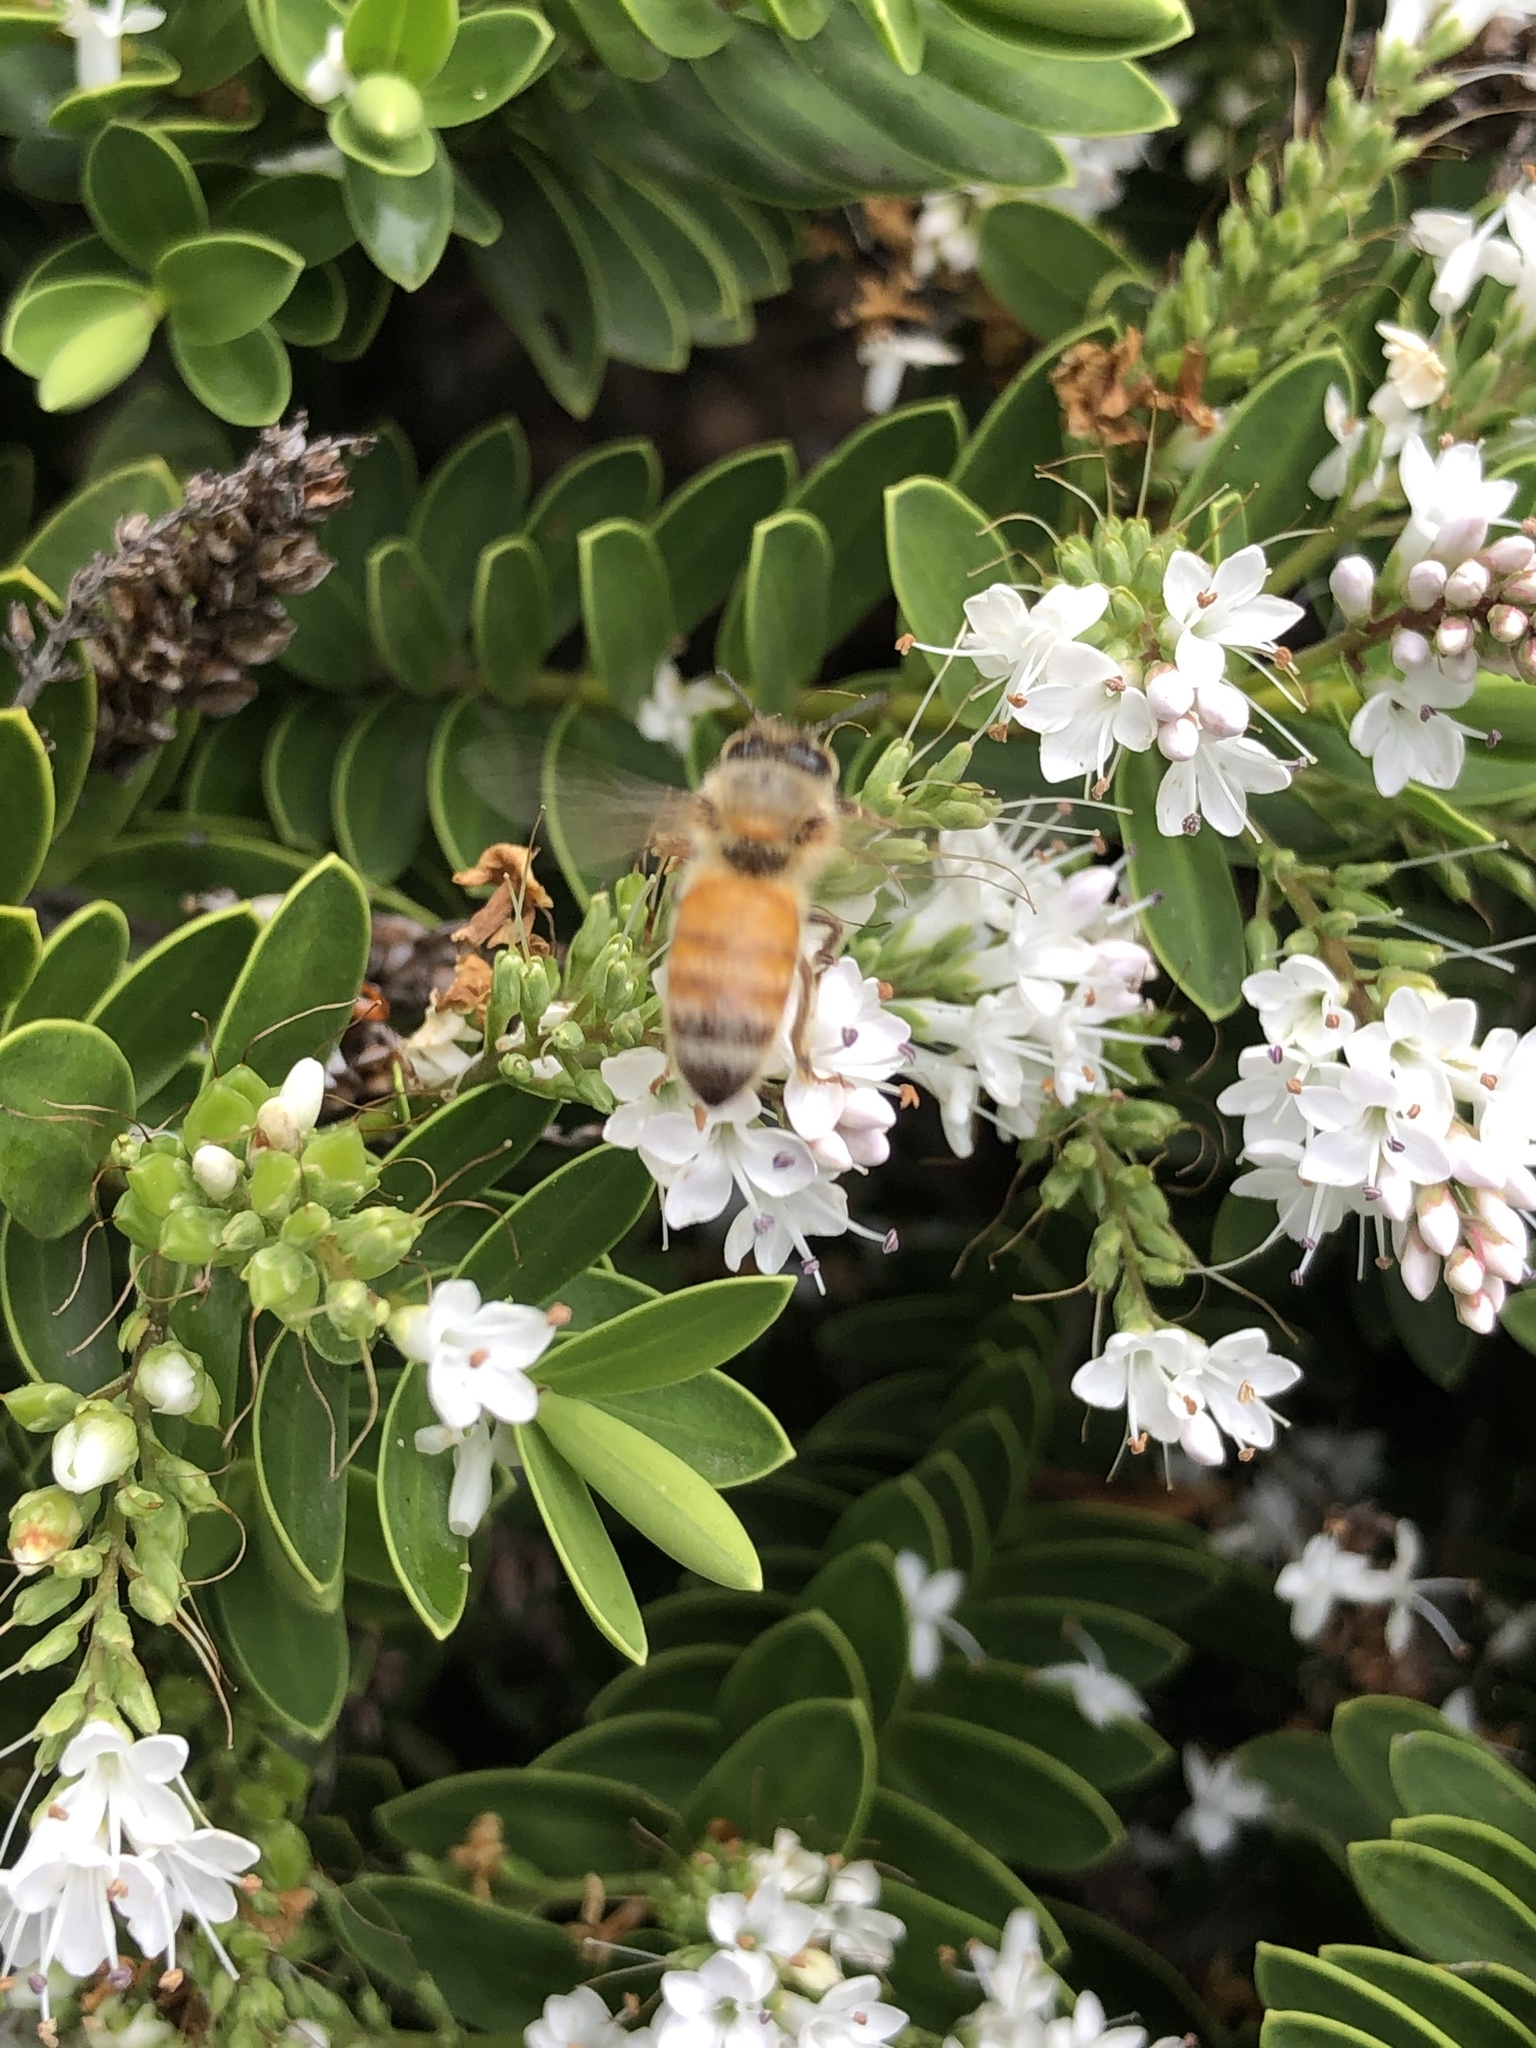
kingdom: Animalia
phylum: Arthropoda
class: Insecta
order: Hymenoptera
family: Apidae
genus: Apis
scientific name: Apis mellifera
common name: Honey bee
